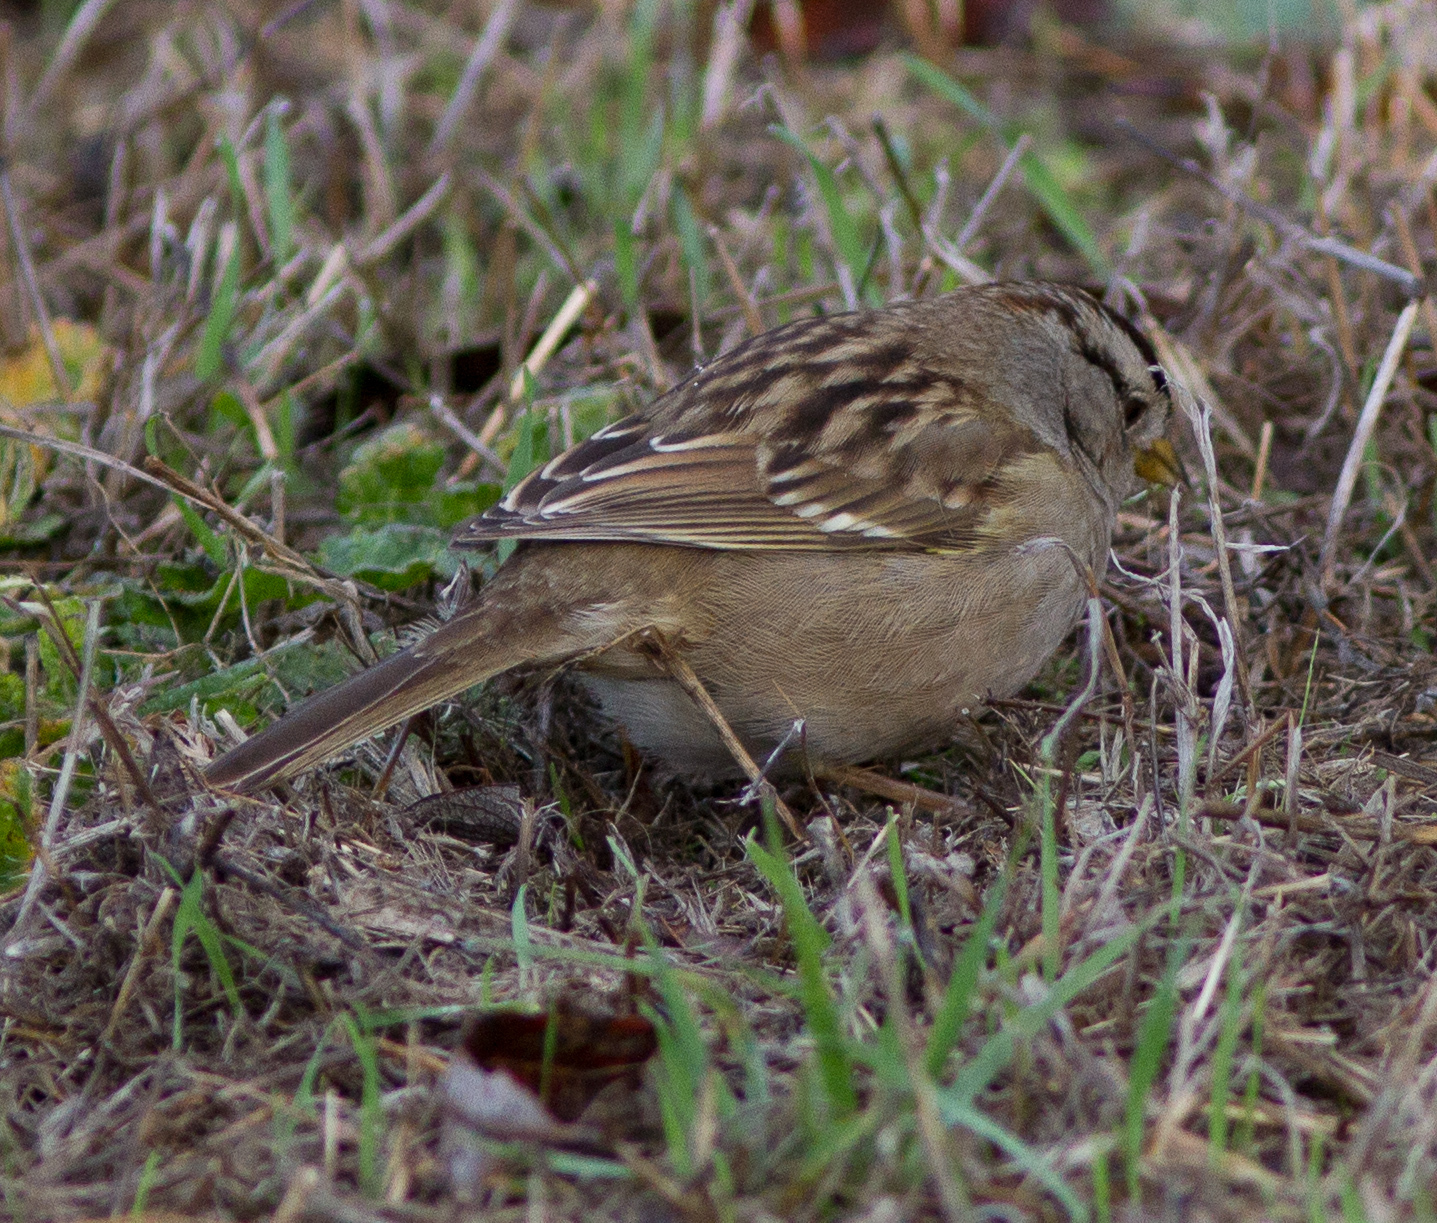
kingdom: Animalia
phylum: Chordata
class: Aves
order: Passeriformes
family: Passerellidae
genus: Zonotrichia
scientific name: Zonotrichia leucophrys
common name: White-crowned sparrow
